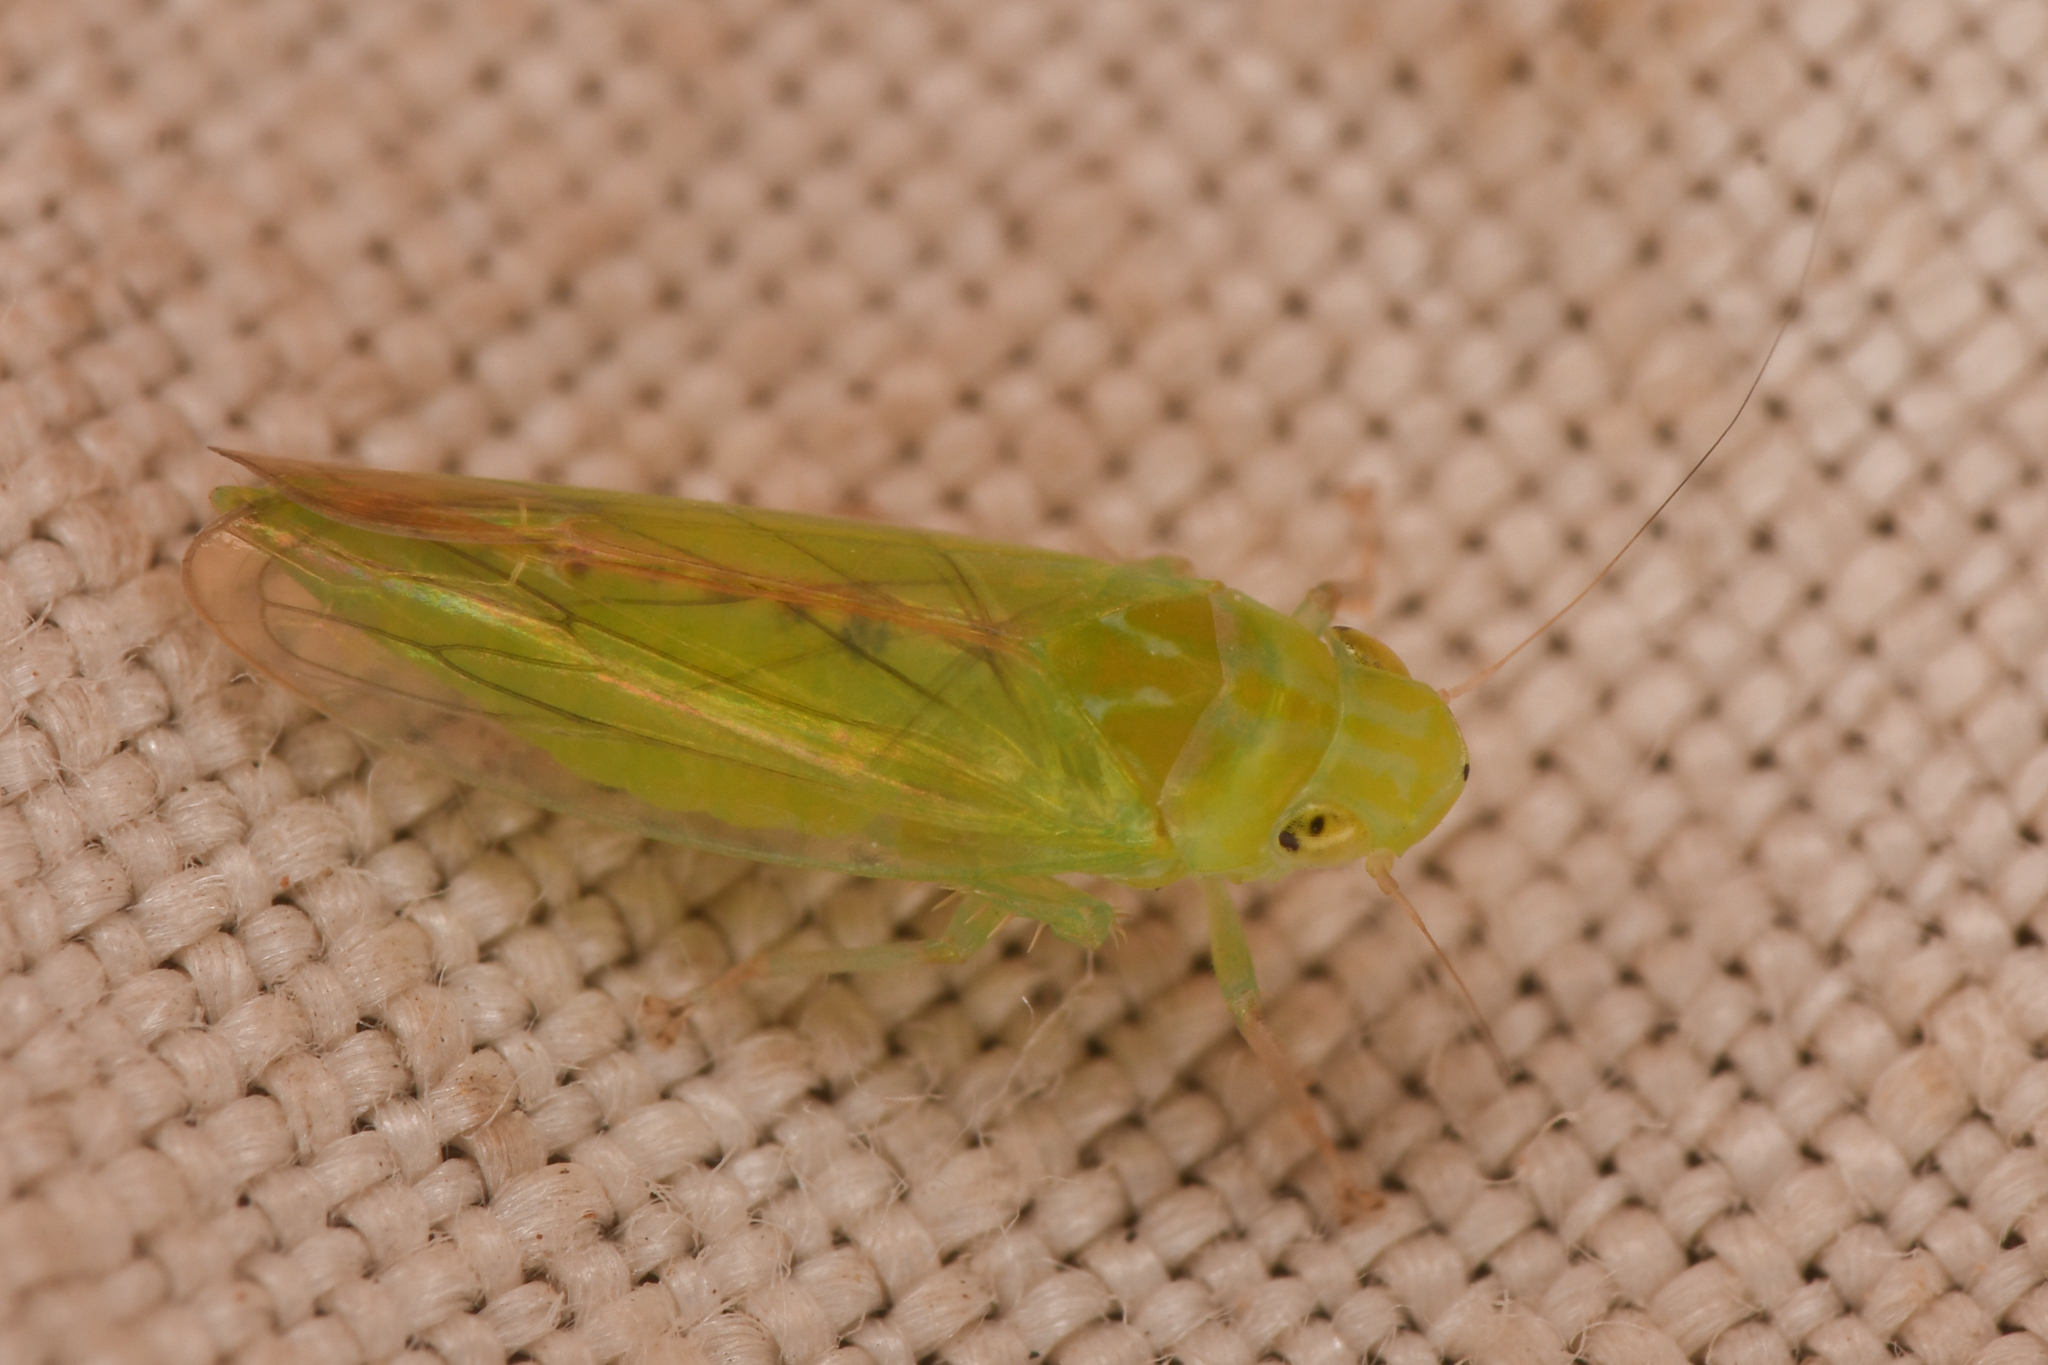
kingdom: Animalia
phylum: Arthropoda
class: Insecta
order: Hemiptera
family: Cicadellidae
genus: Neocoelidiana
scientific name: Neocoelidiana obscura
